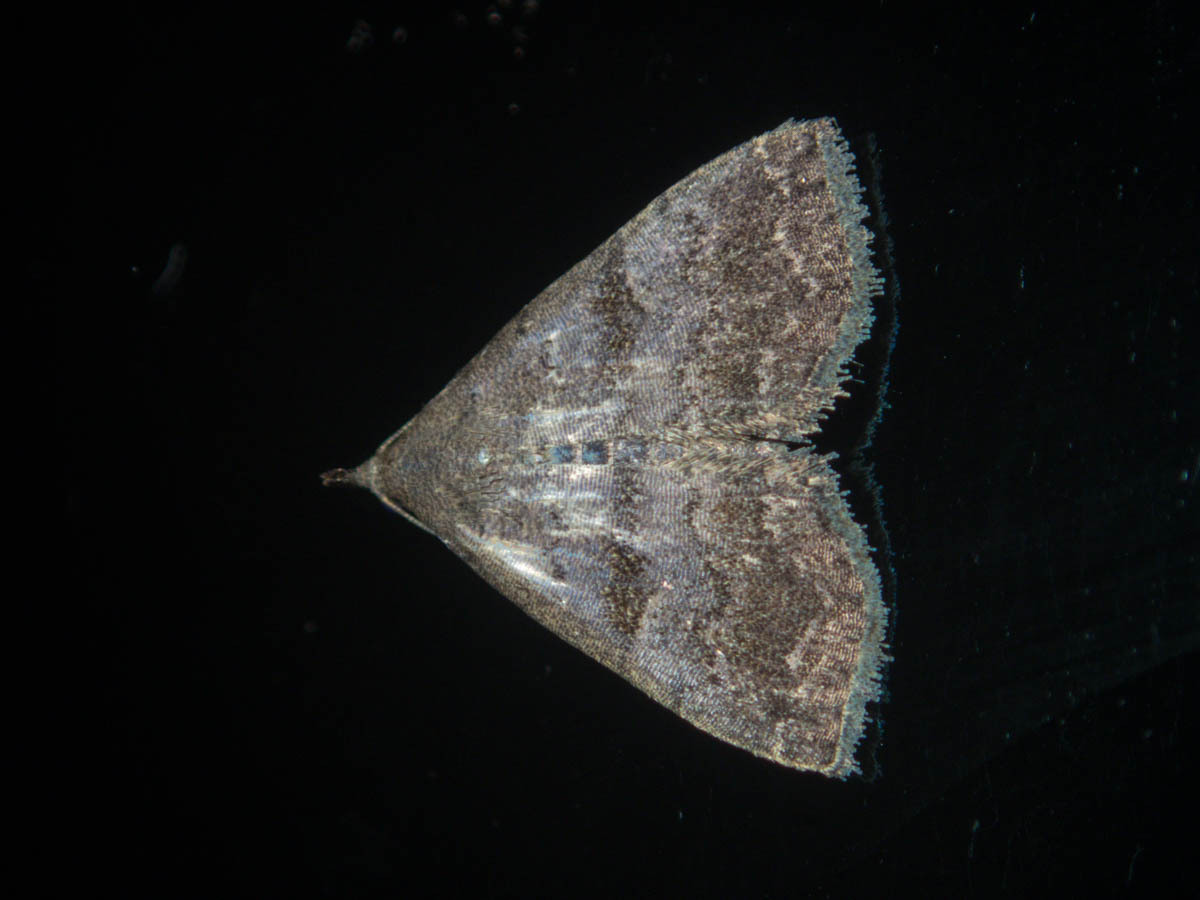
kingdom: Animalia
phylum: Arthropoda
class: Insecta
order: Lepidoptera
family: Erebidae
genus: Polypogon
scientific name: Polypogon Hipoepa fractalis
